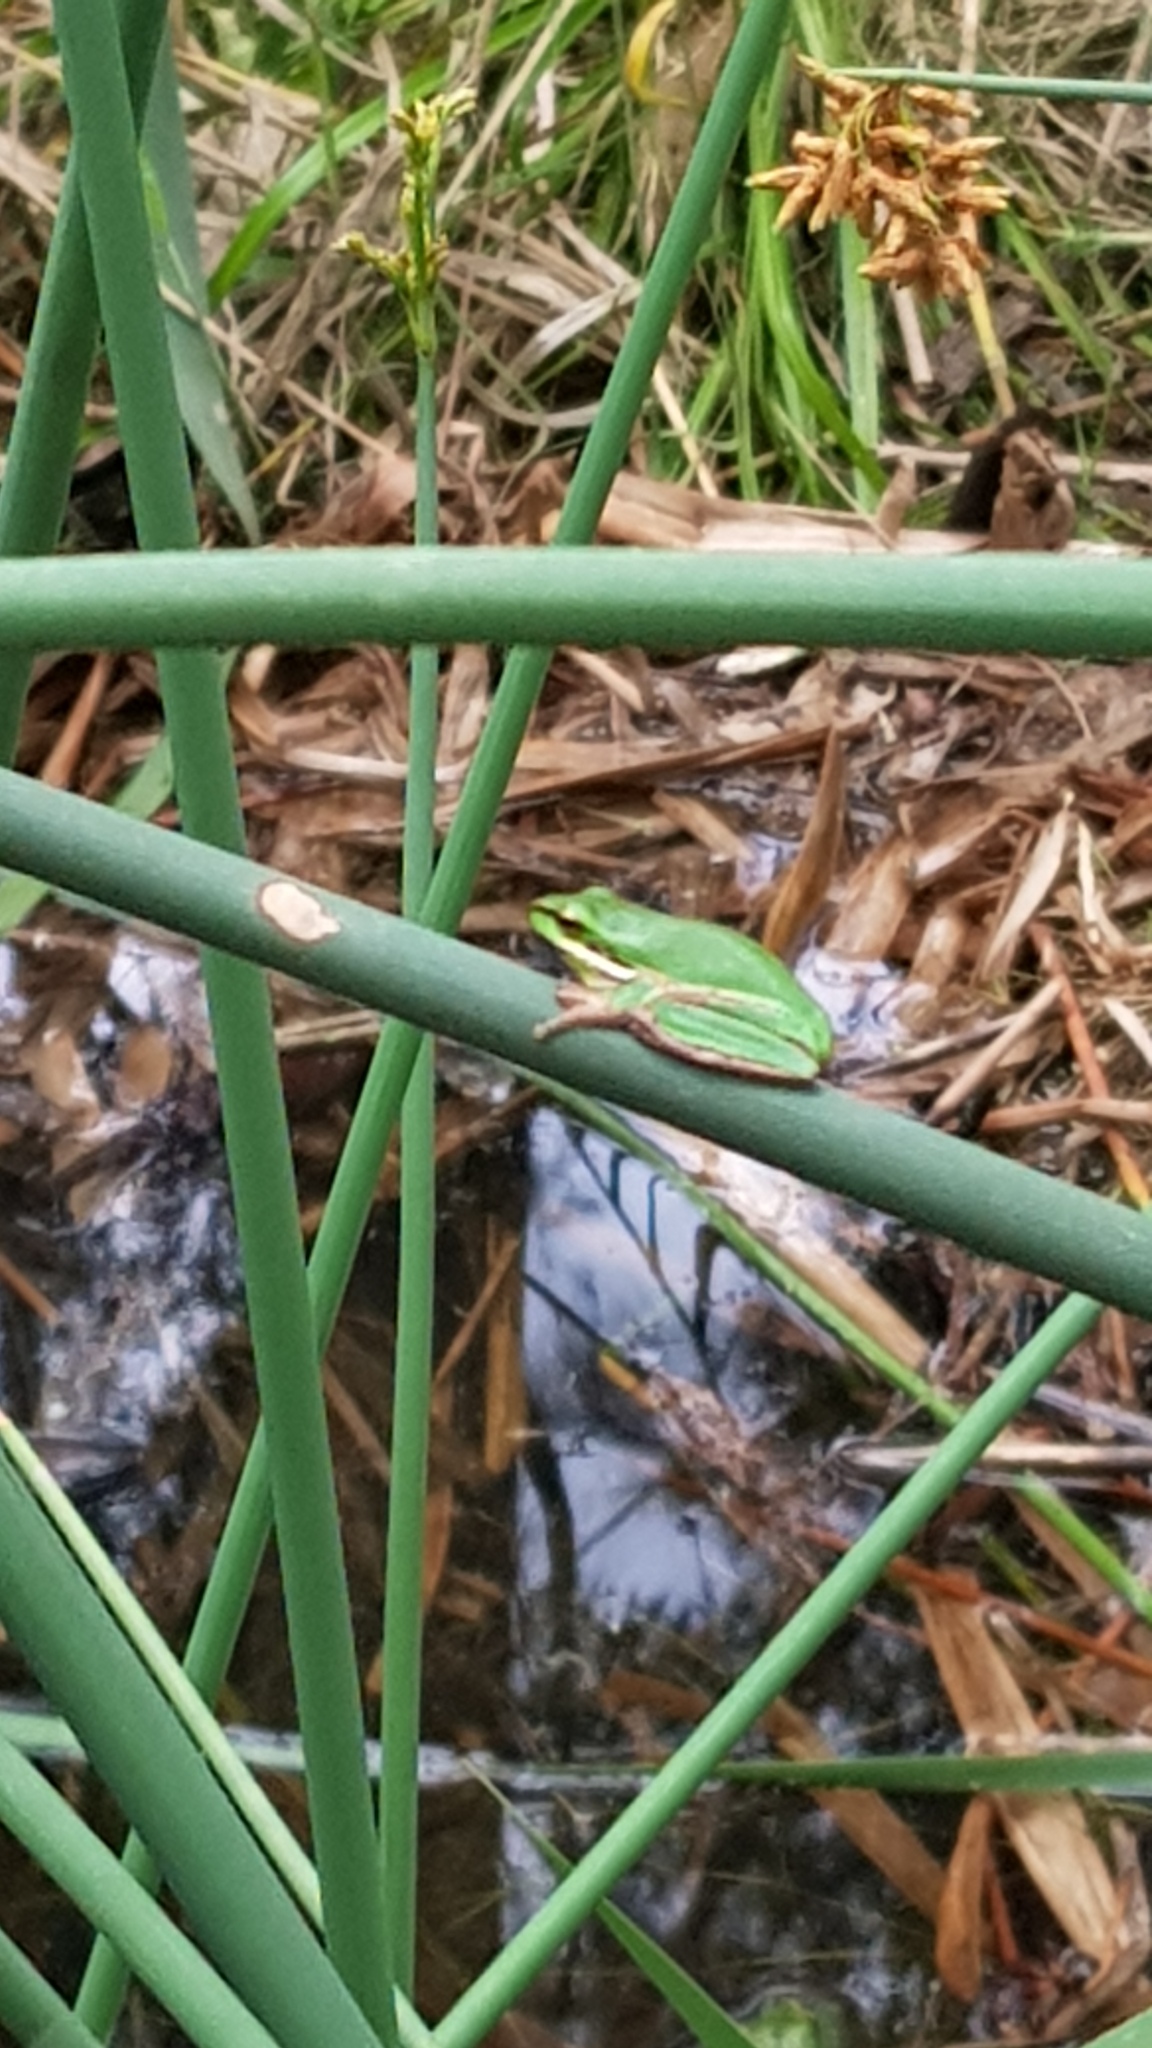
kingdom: Animalia
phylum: Chordata
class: Amphibia
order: Anura
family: Pelodryadidae
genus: Litoria
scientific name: Litoria fallax
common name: Eastern dwarf treefrog
